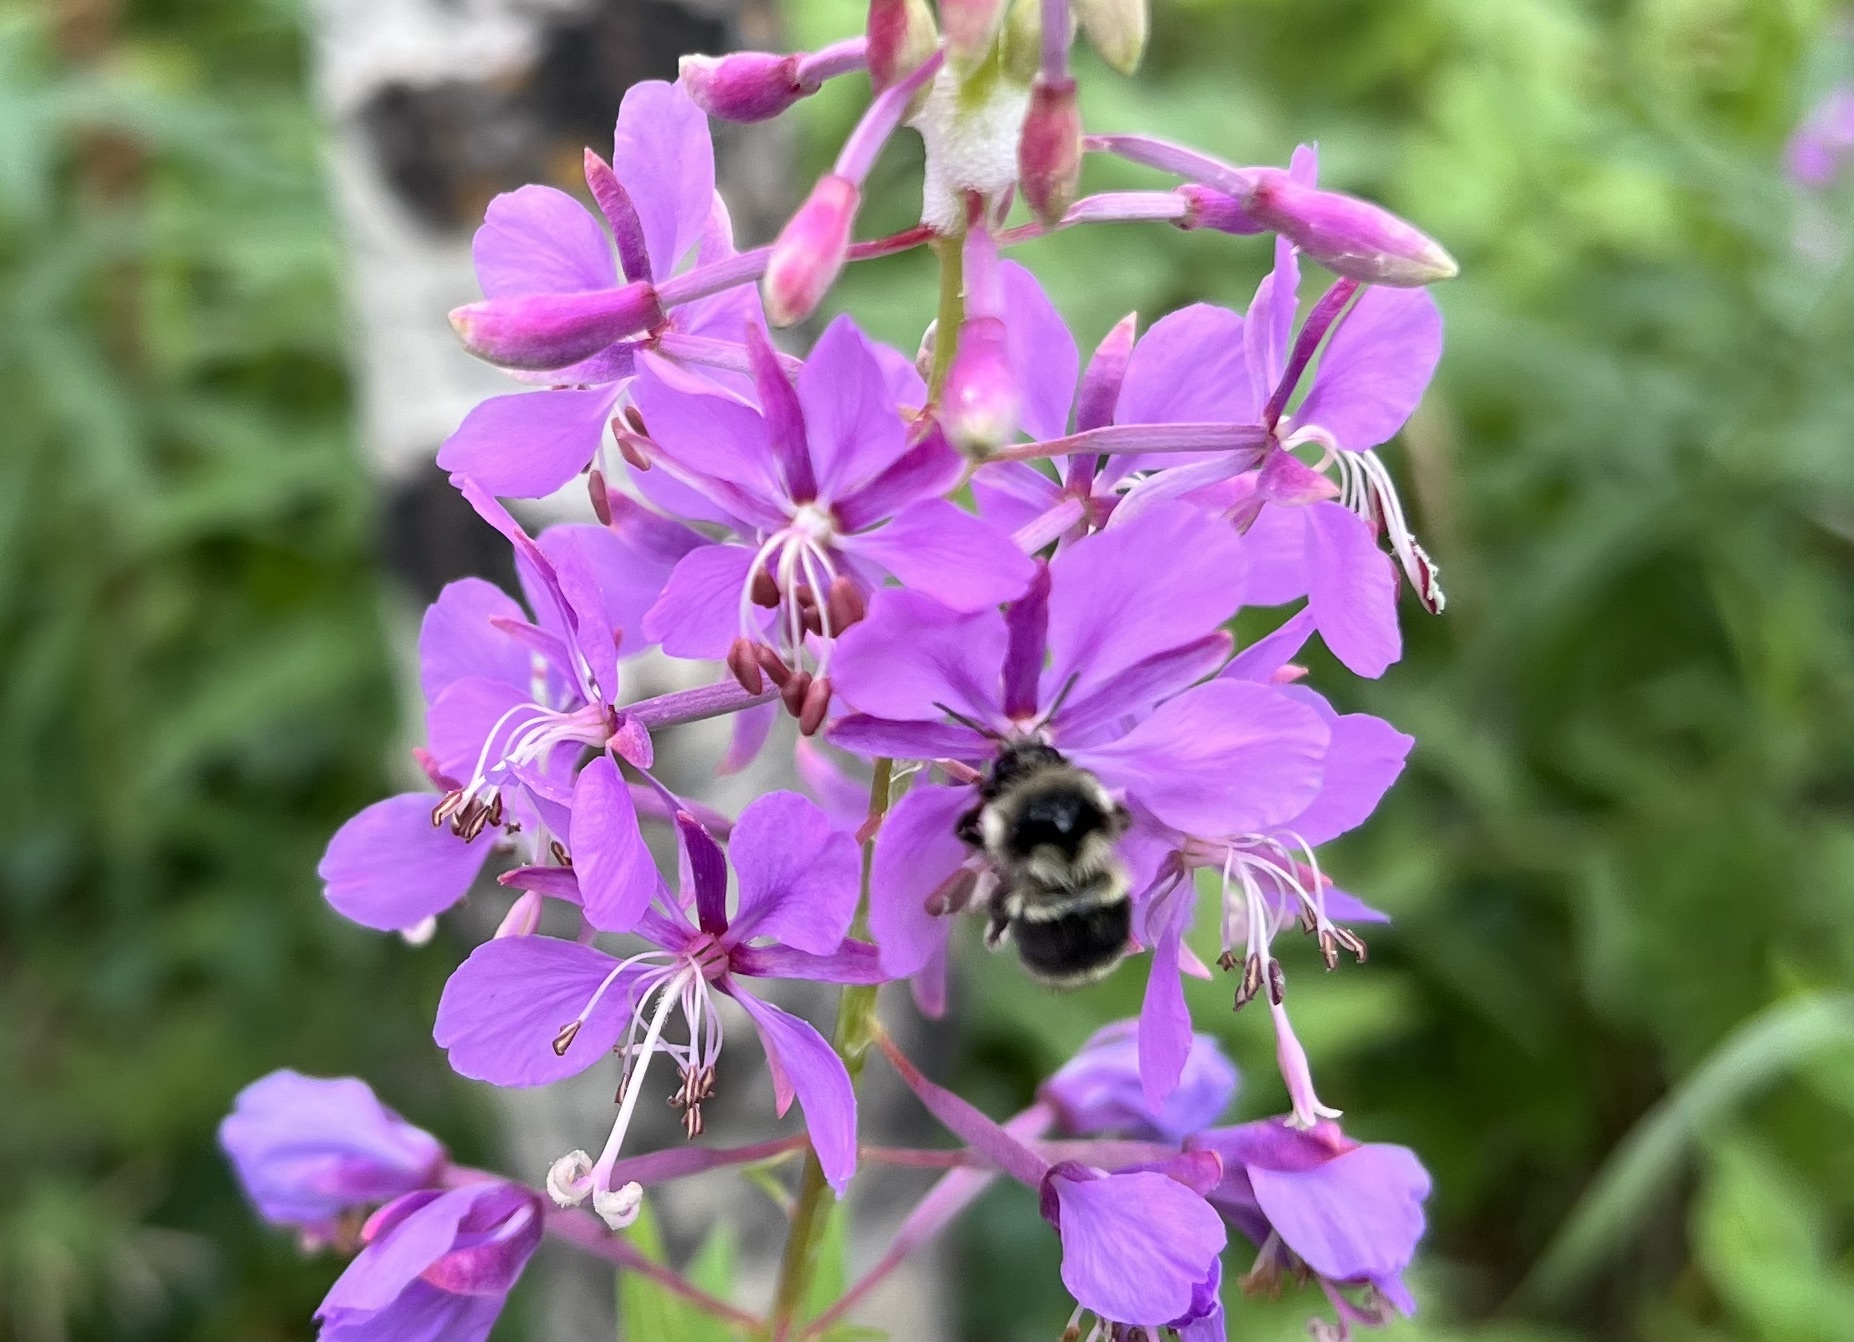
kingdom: Animalia
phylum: Arthropoda
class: Insecta
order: Hymenoptera
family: Apidae
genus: Bombus
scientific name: Bombus vancouverensis
